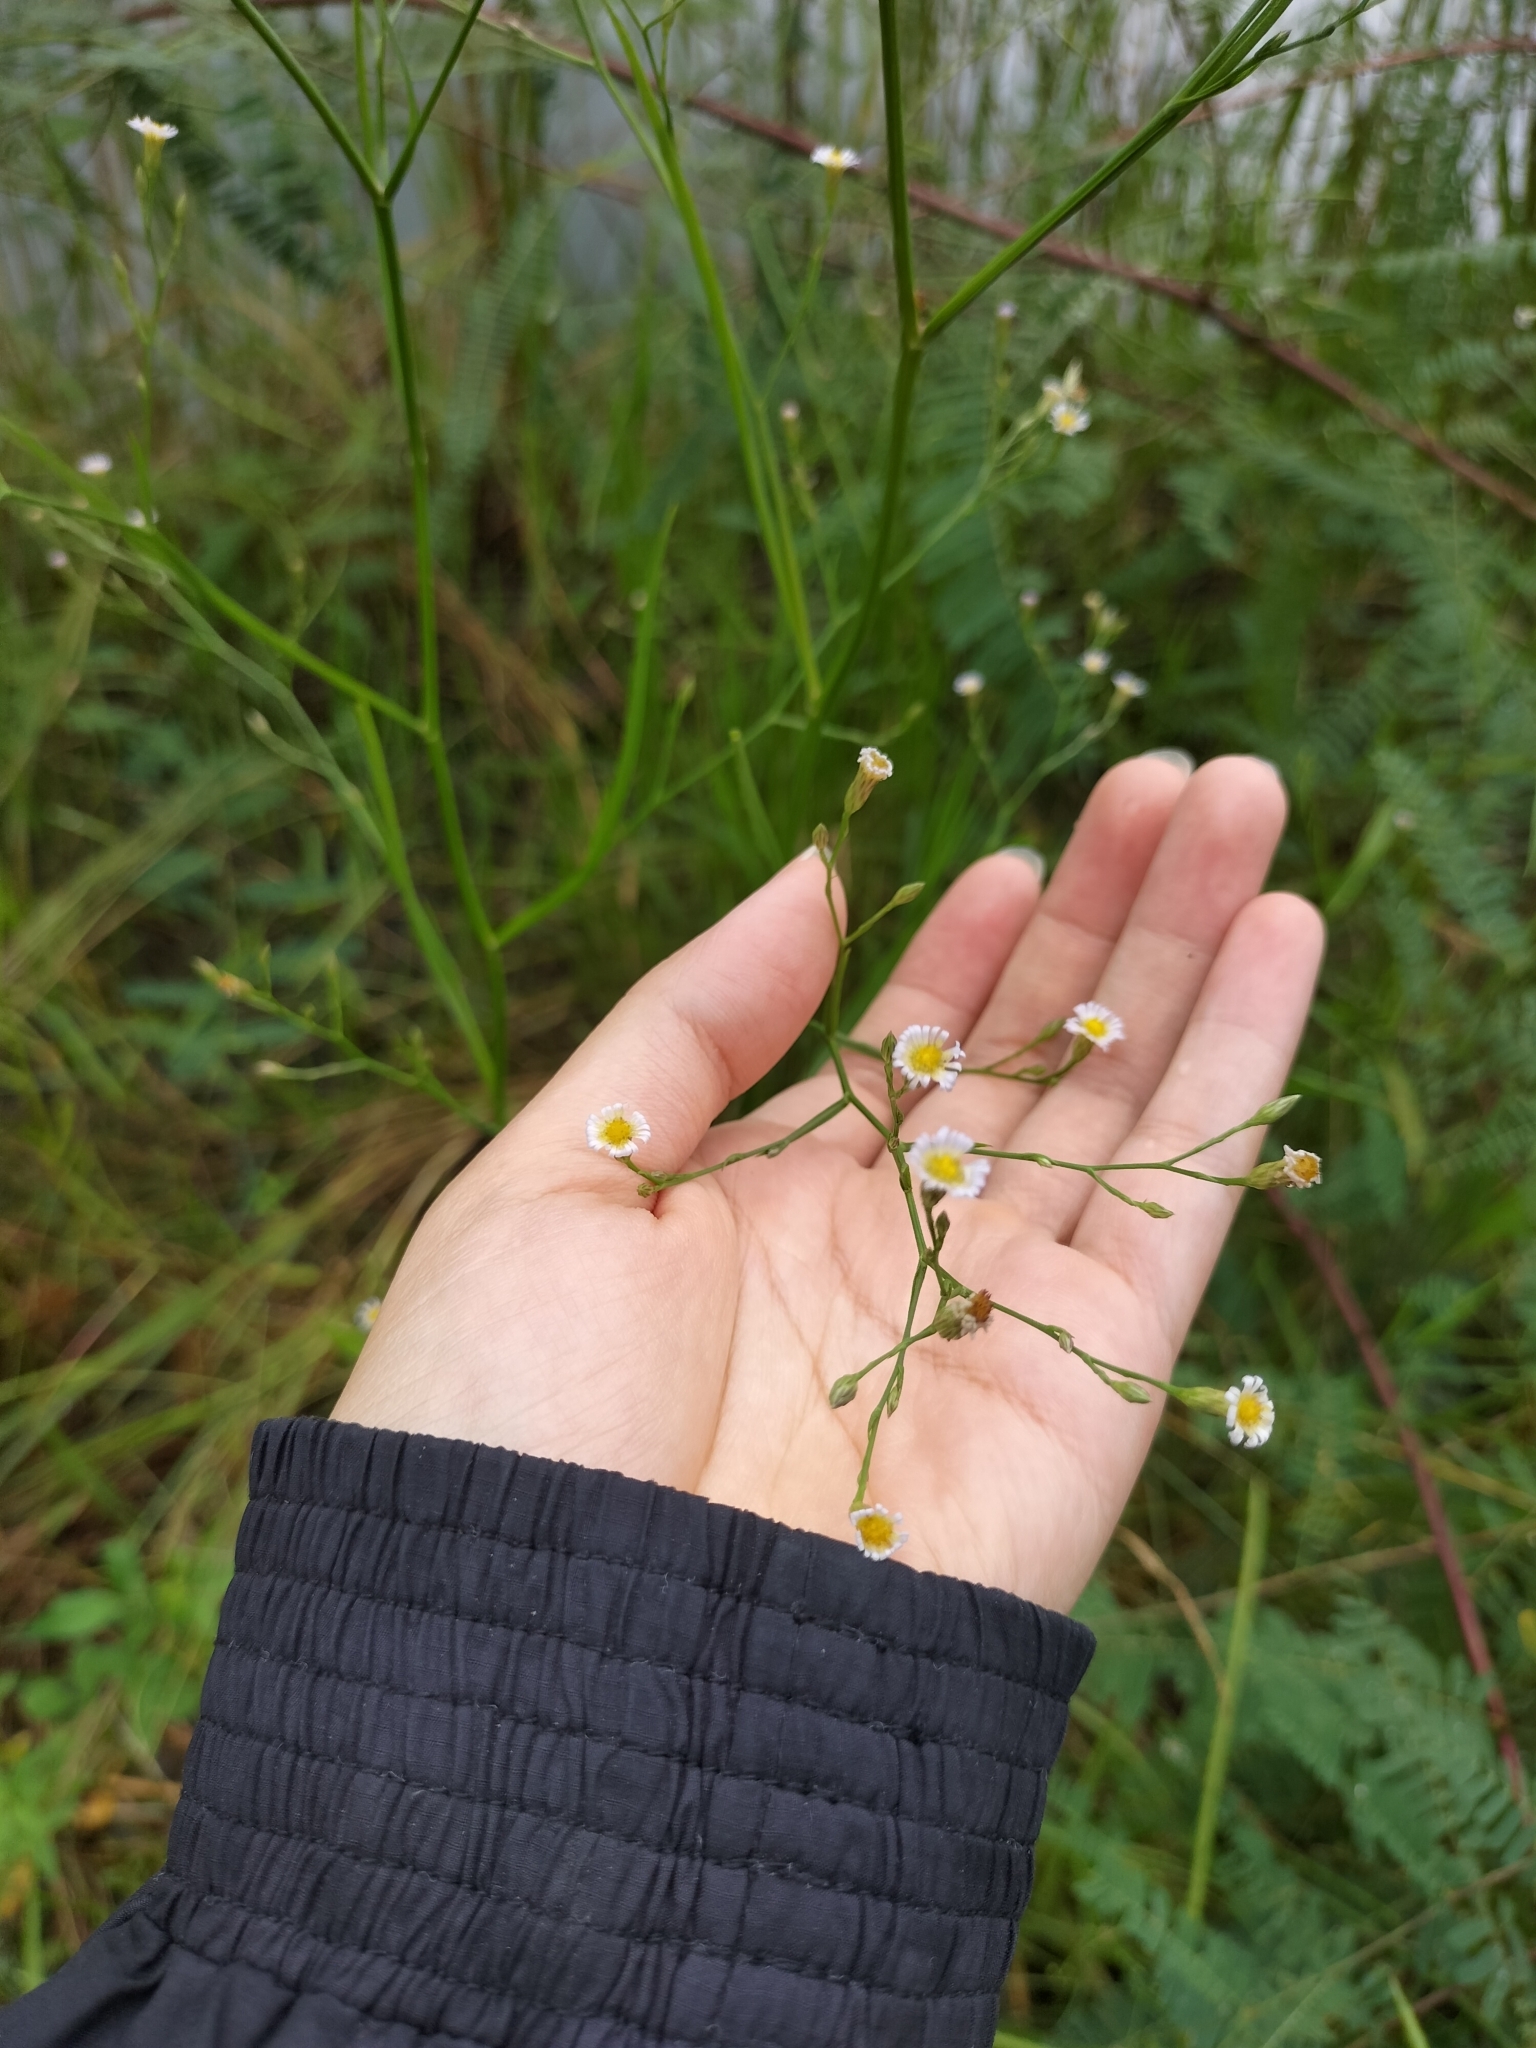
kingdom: Plantae
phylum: Tracheophyta
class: Magnoliopsida
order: Asterales
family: Asteraceae
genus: Symphyotrichum
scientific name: Symphyotrichum subulatum
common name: Annual saltmarsh aster
